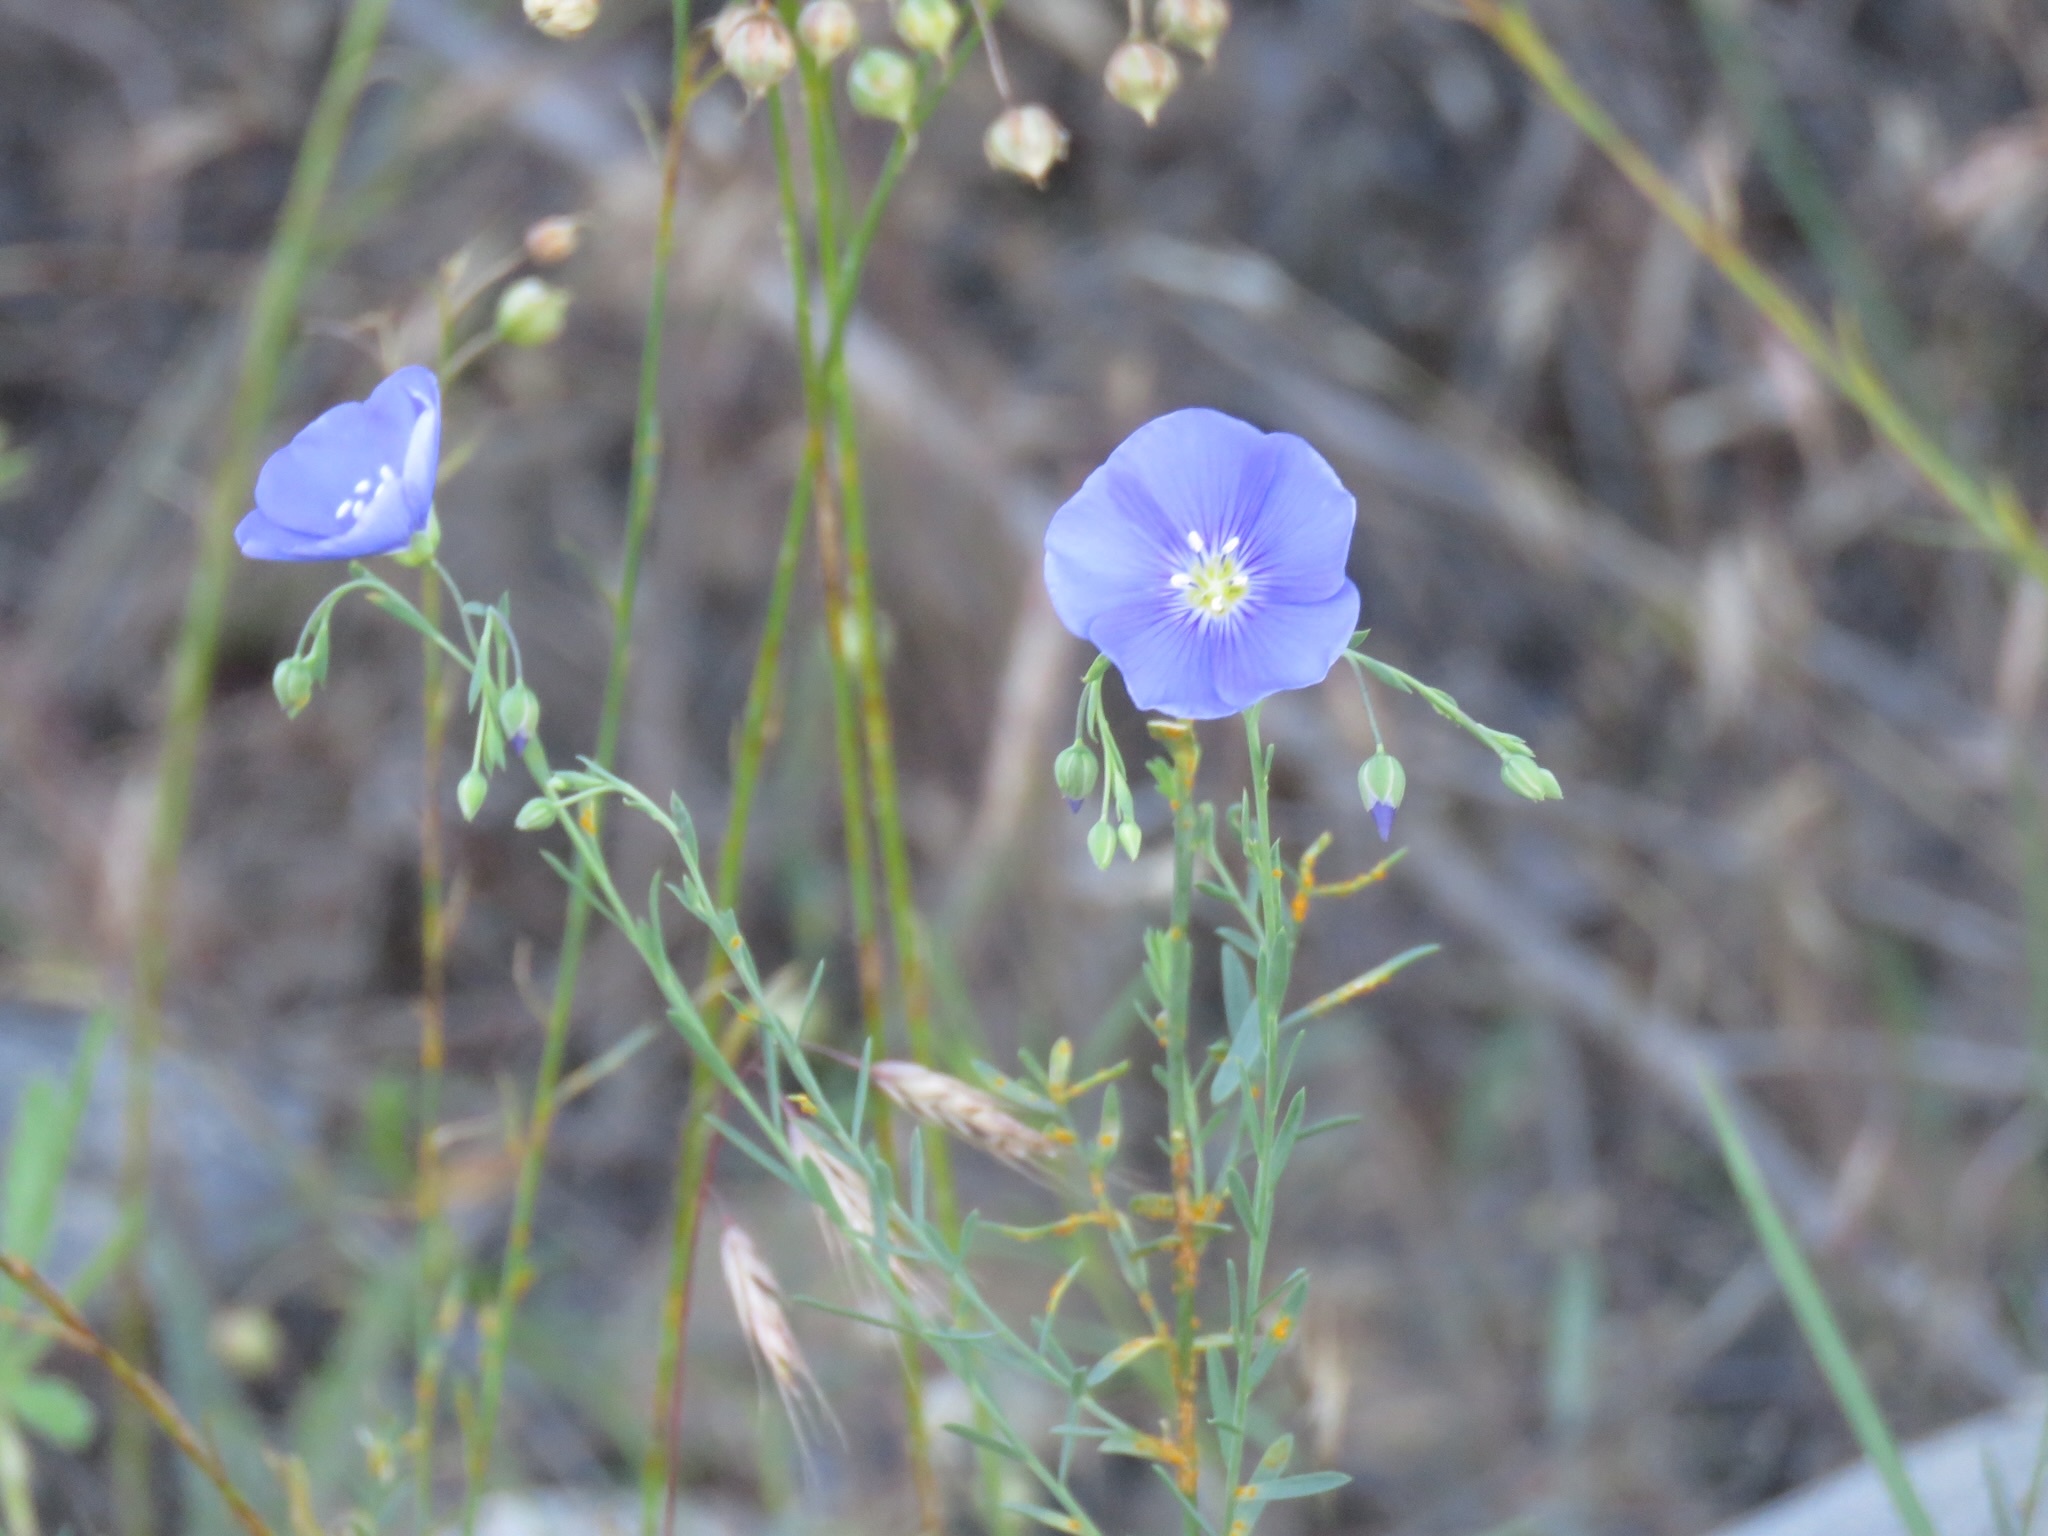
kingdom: Plantae
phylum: Tracheophyta
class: Magnoliopsida
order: Malpighiales
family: Linaceae
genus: Linum
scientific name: Linum lewisii
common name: Prairie flax
